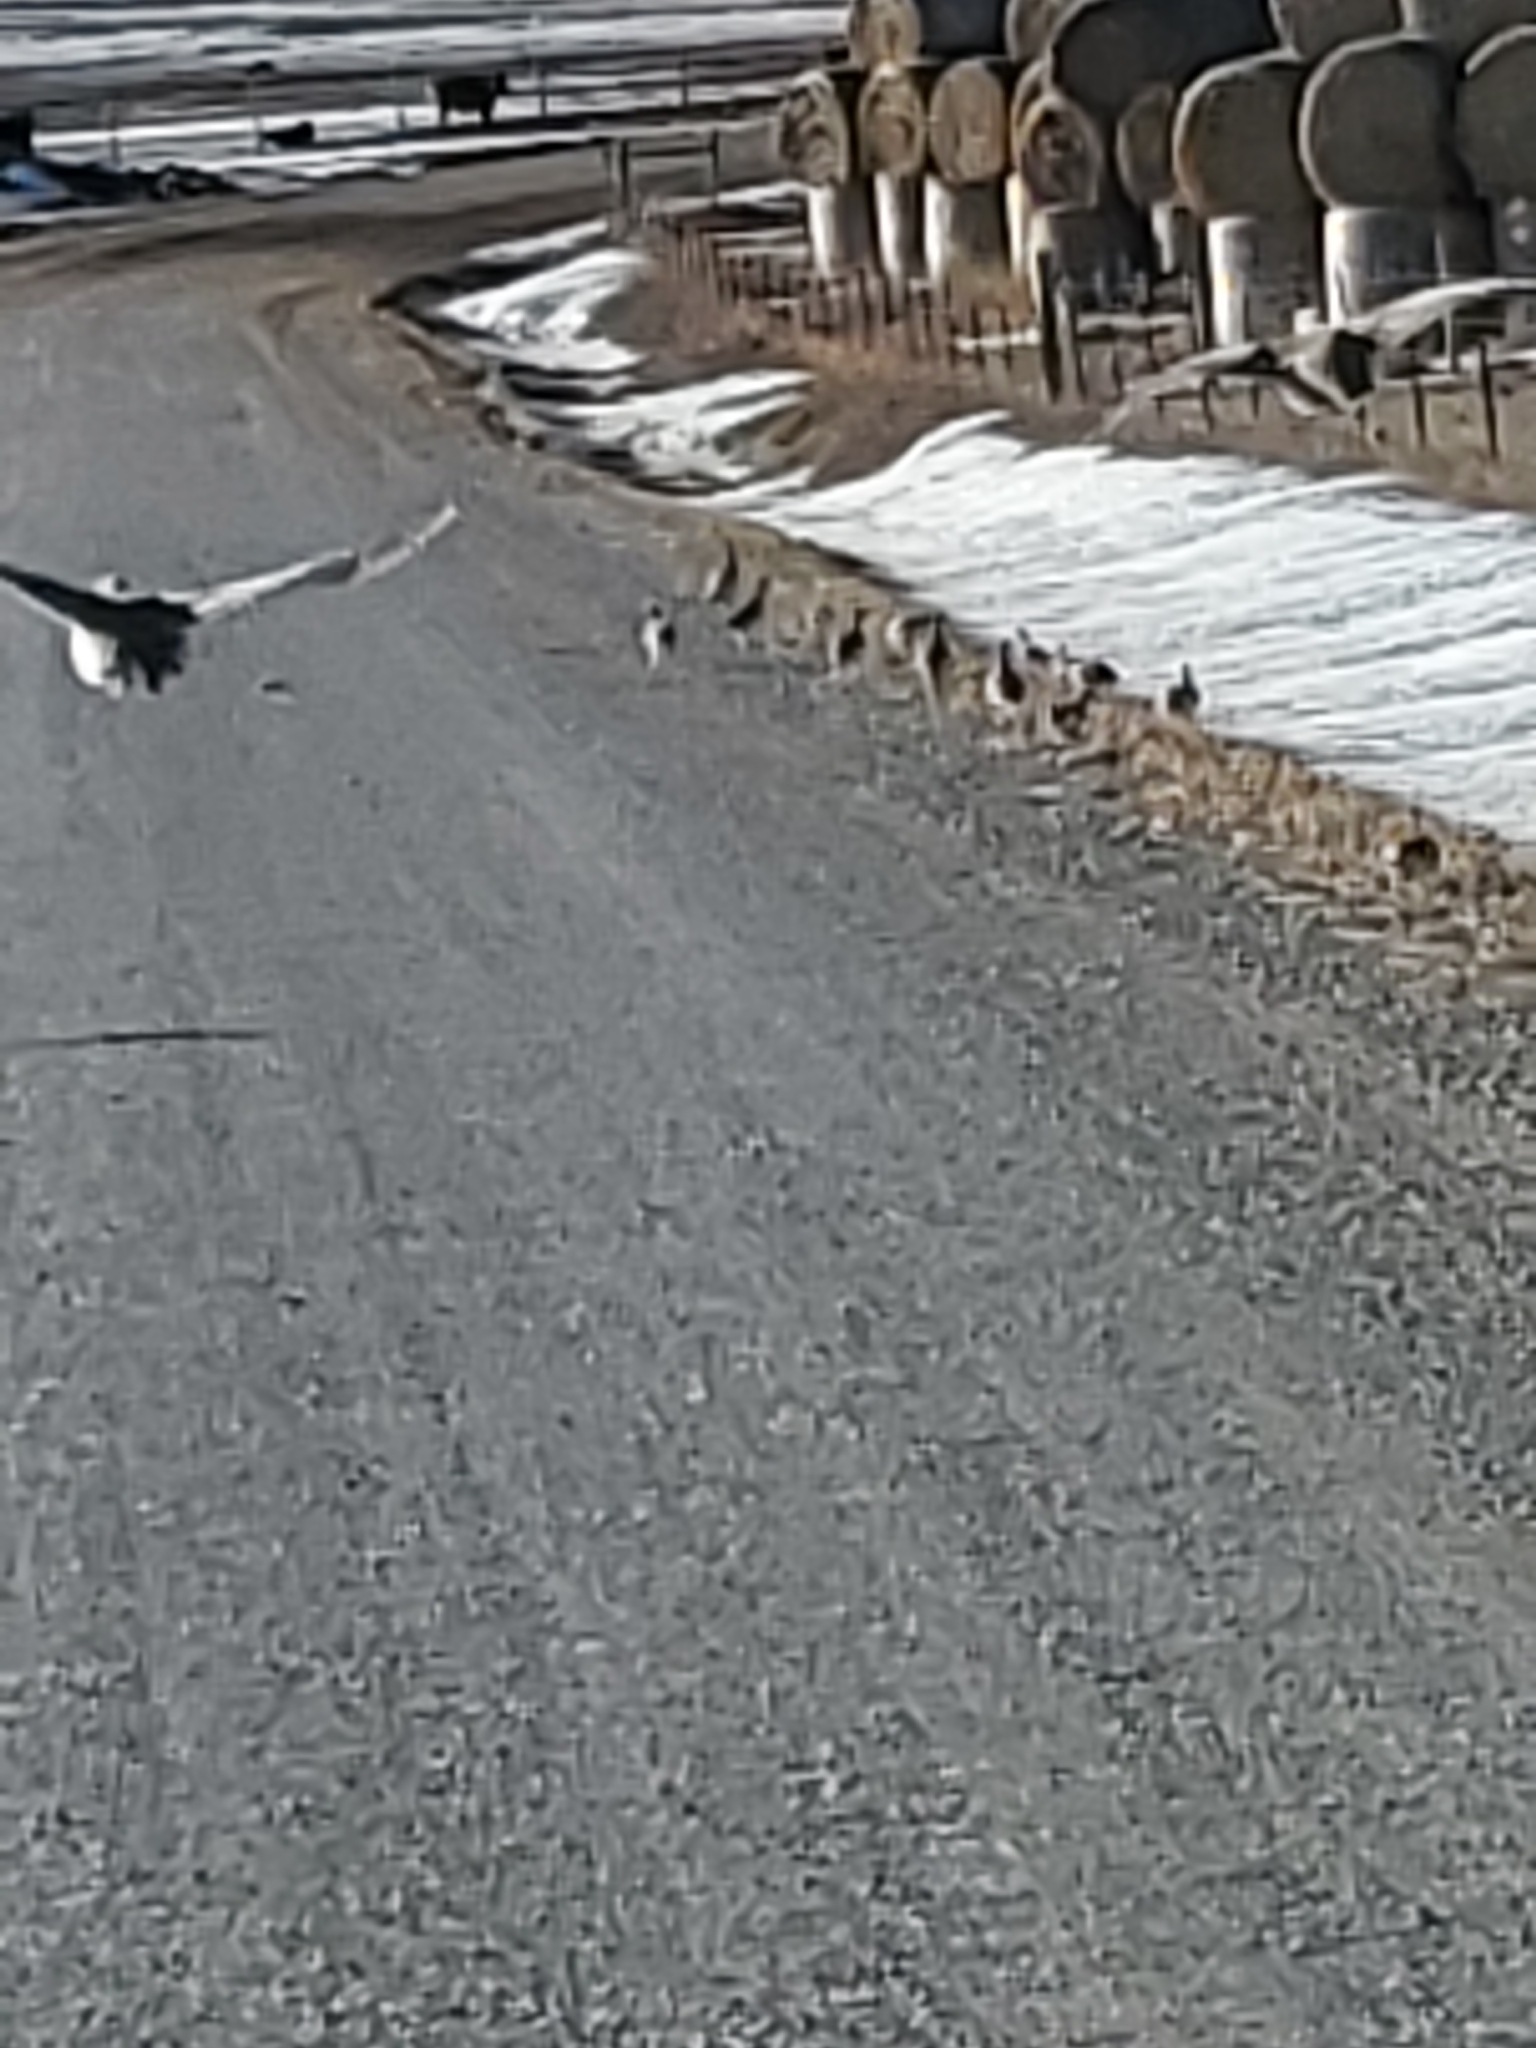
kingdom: Animalia
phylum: Chordata
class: Aves
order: Galliformes
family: Phasianidae
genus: Tympanuchus
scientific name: Tympanuchus phasianellus
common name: Sharp-tailed grouse
